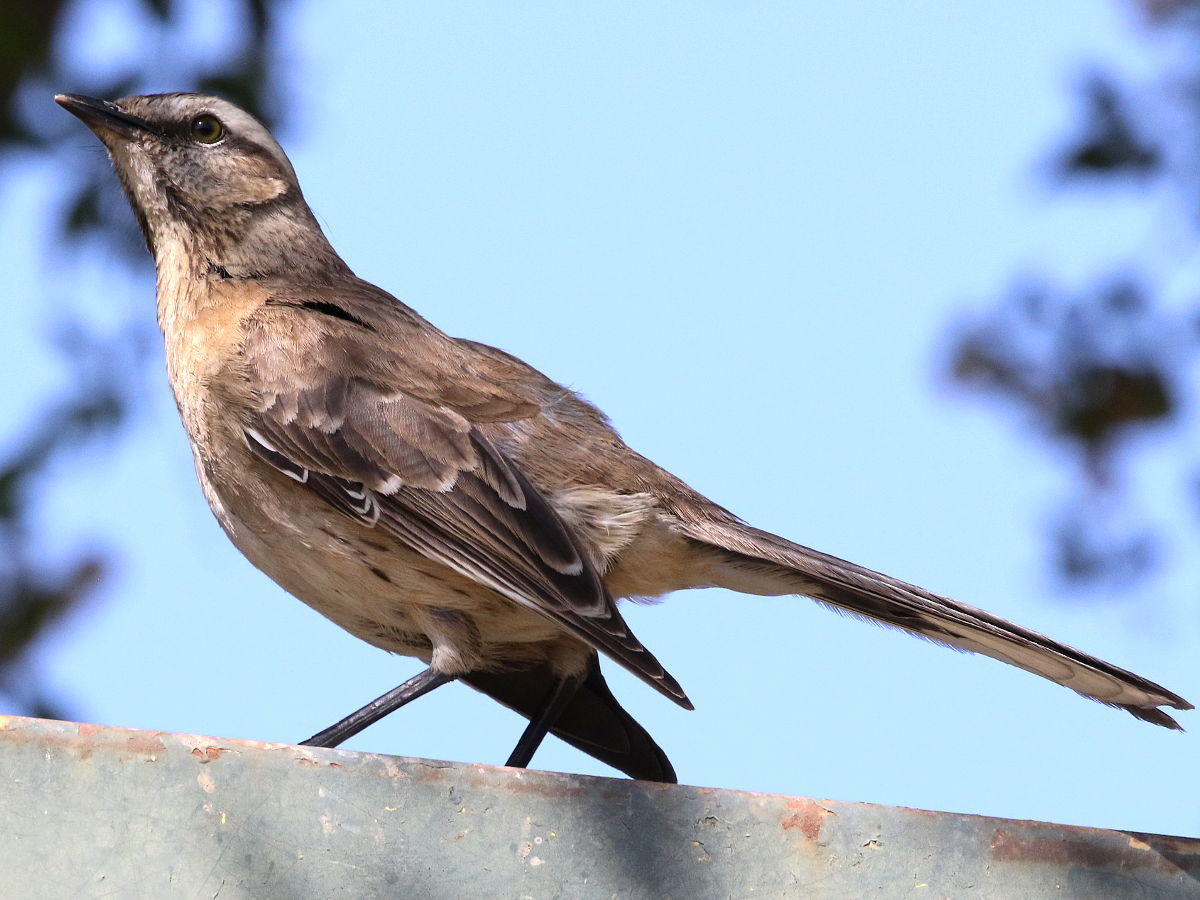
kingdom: Animalia
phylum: Chordata
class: Aves
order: Passeriformes
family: Mimidae
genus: Mimus
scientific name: Mimus thenca
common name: Chilean mockingbird
